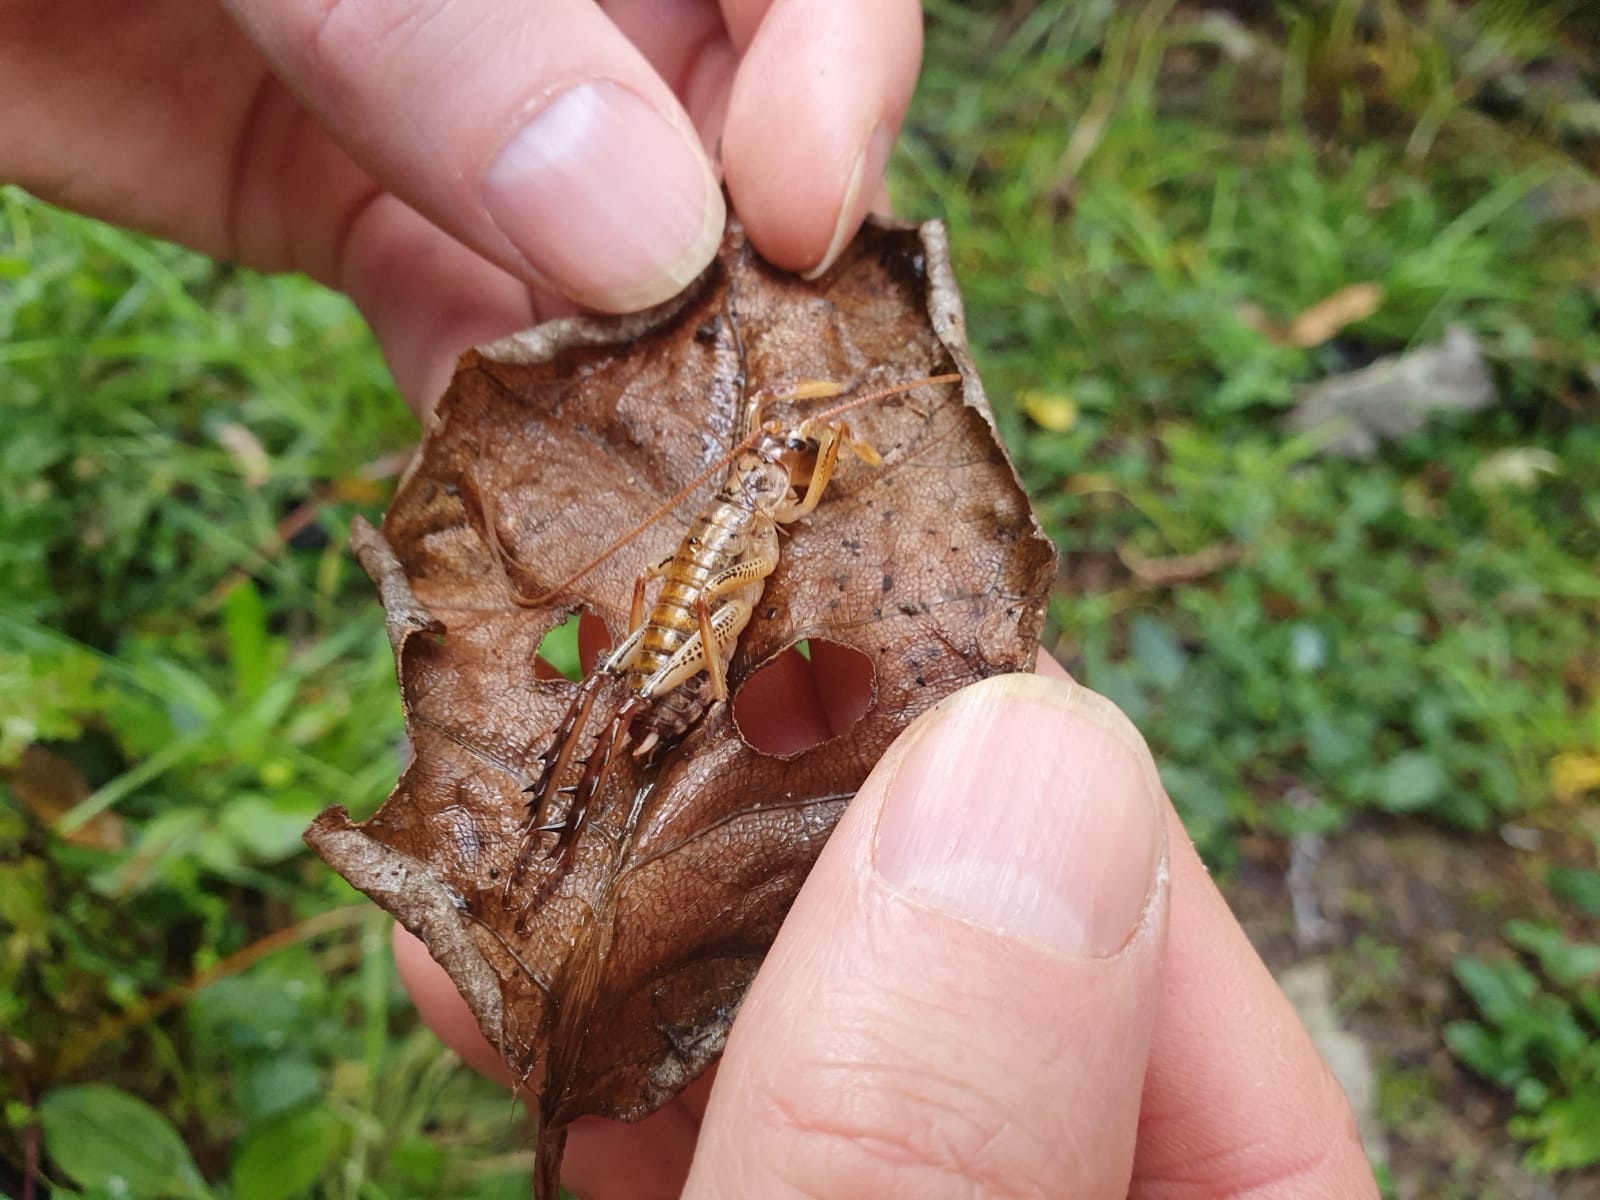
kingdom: Animalia
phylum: Arthropoda
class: Insecta
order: Orthoptera
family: Anostostomatidae
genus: Hemideina
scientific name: Hemideina thoracica
